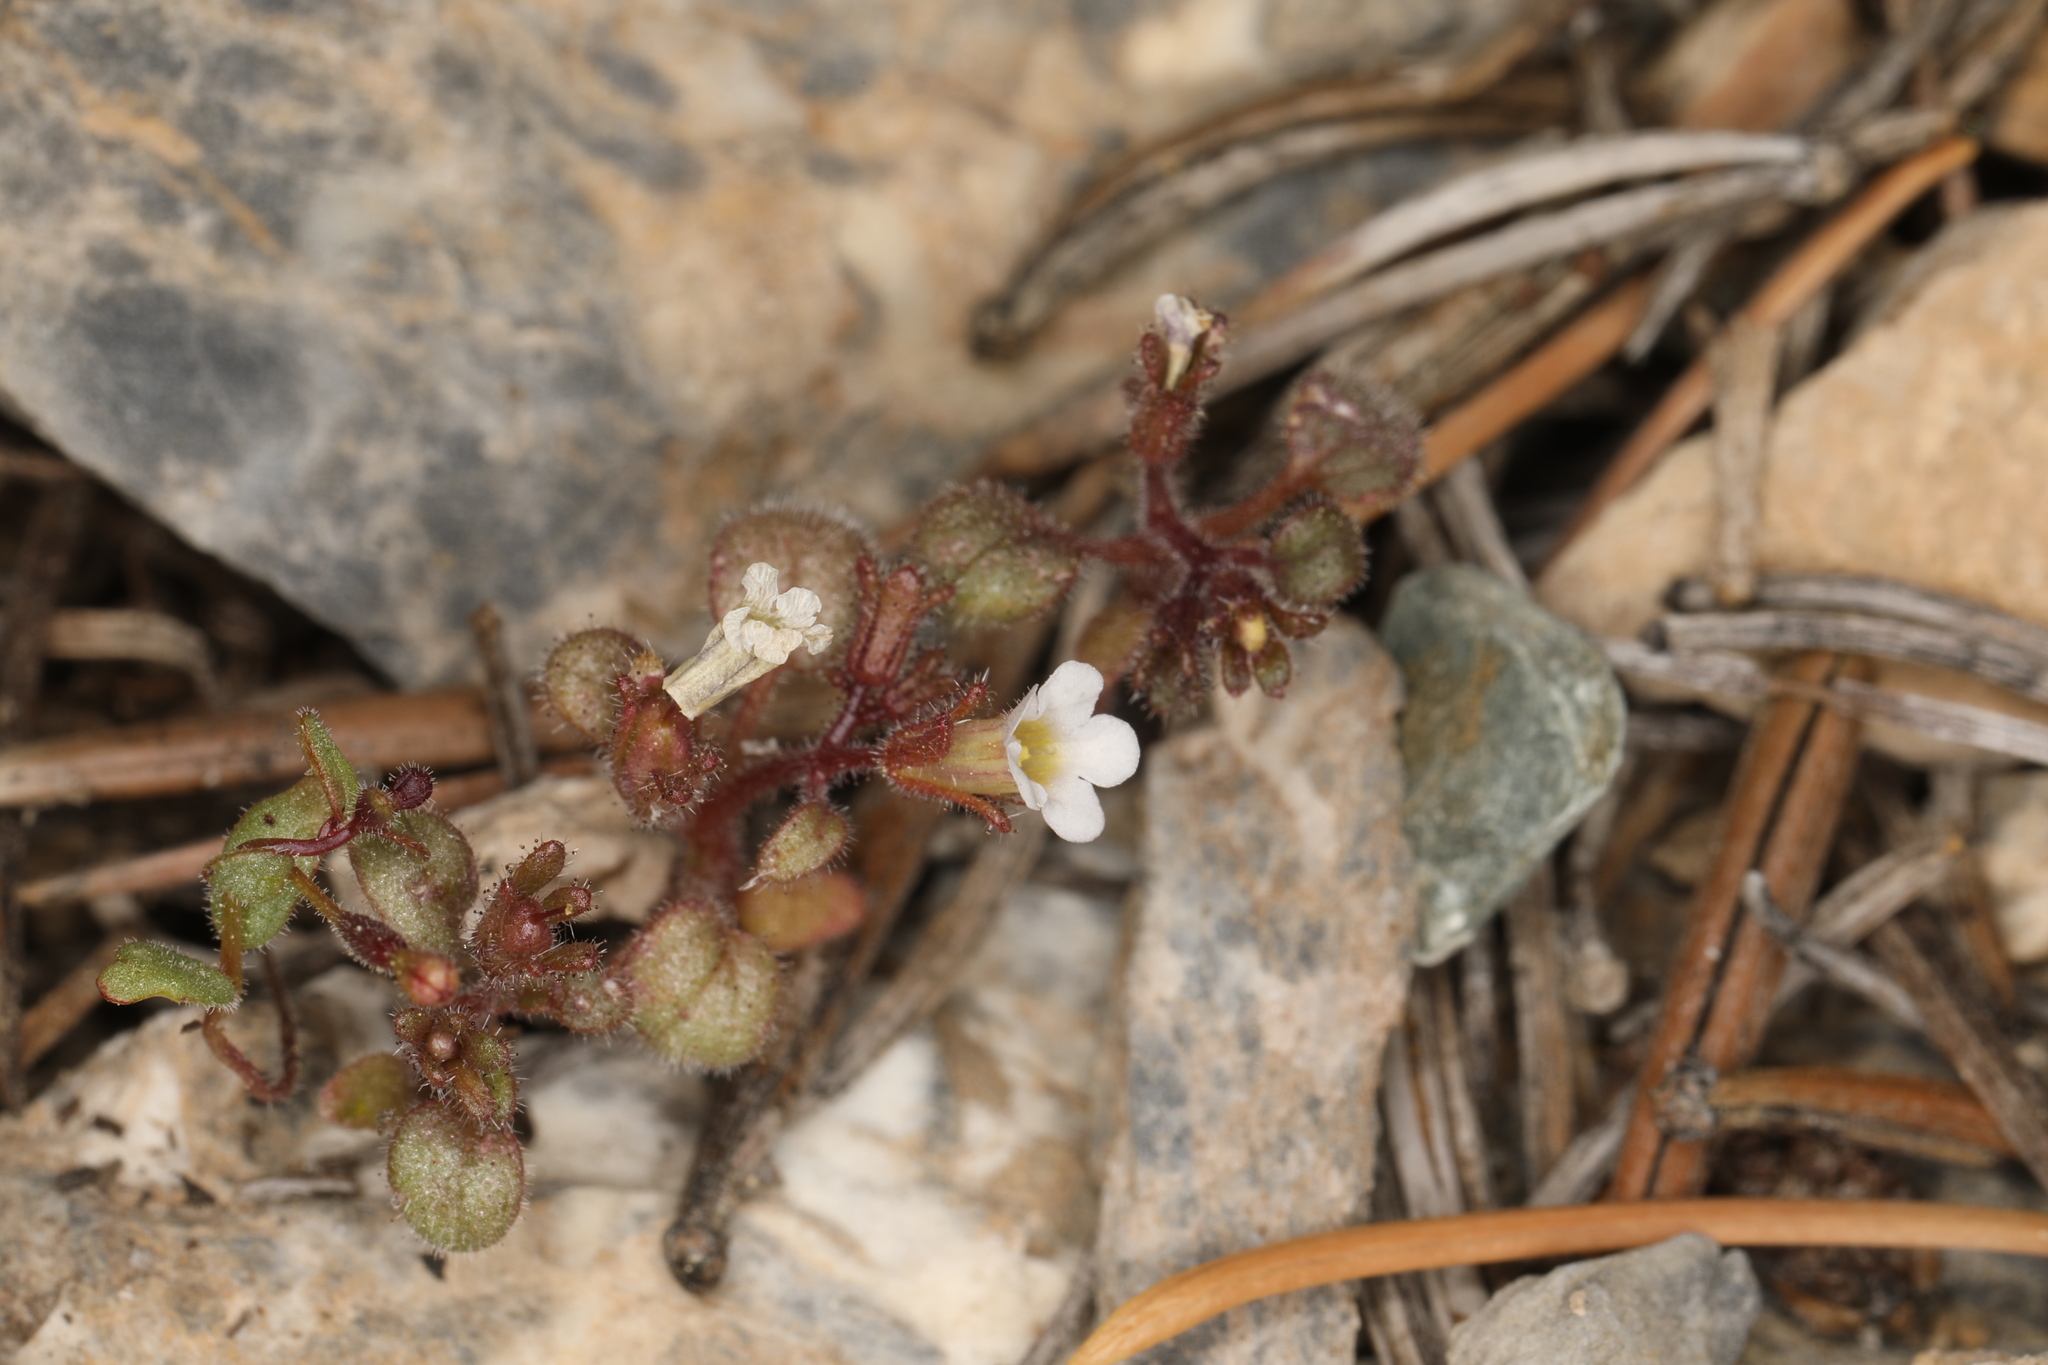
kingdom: Plantae
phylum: Tracheophyta
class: Magnoliopsida
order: Boraginales
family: Hydrophyllaceae
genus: Phacelia
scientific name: Phacelia barnebyana
